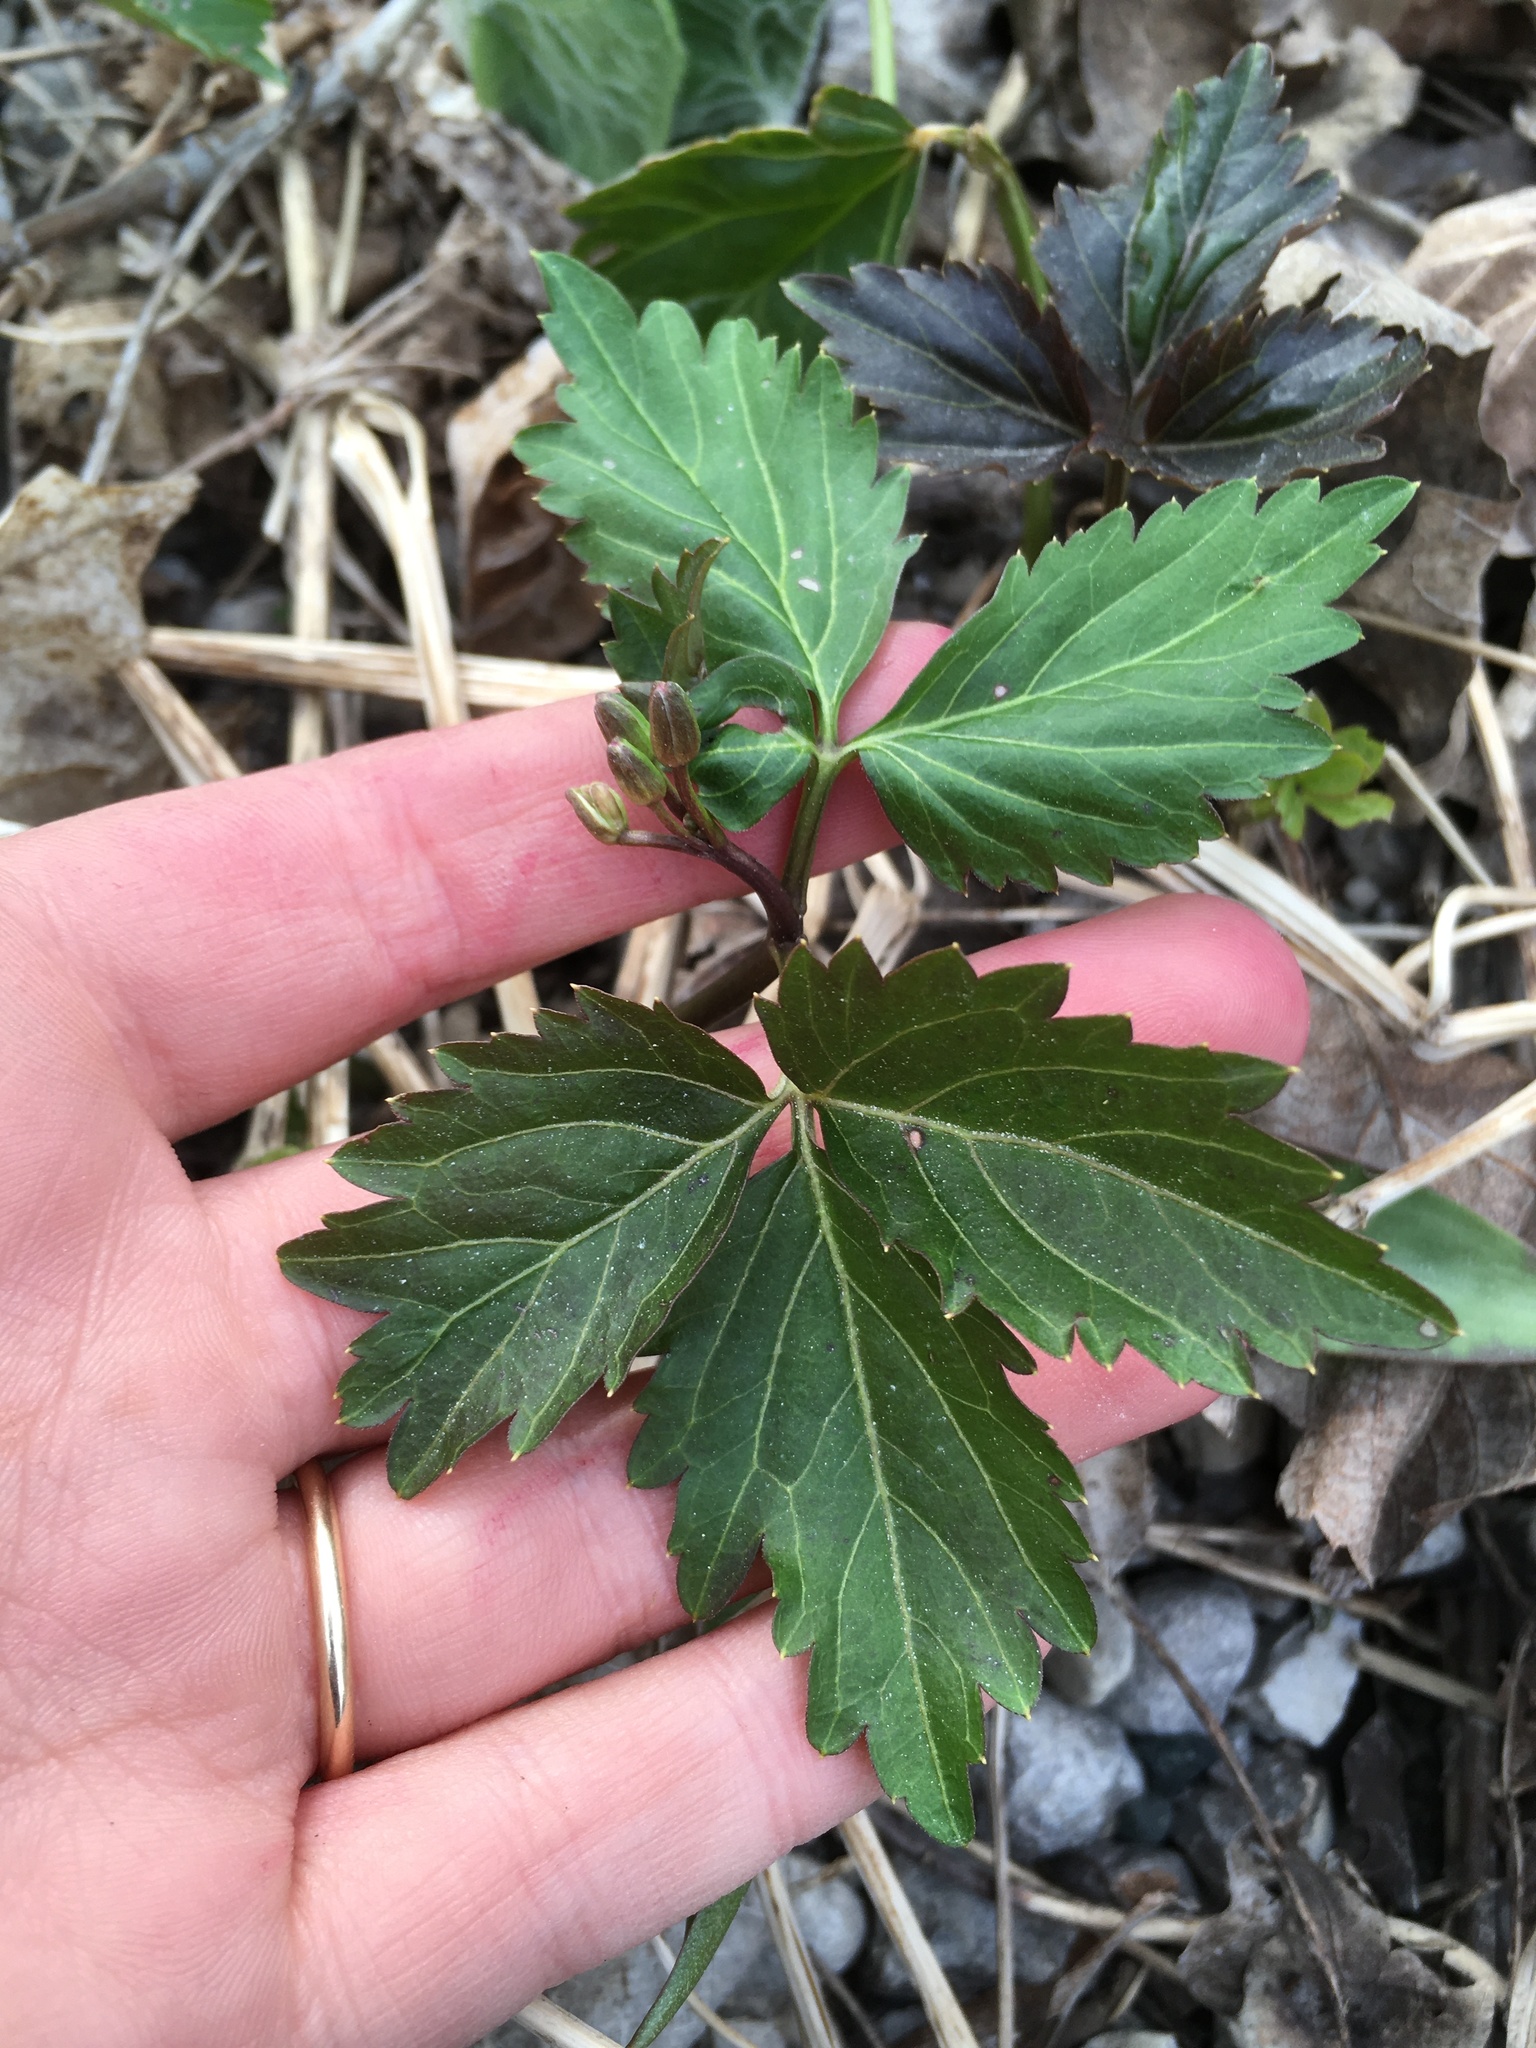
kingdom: Plantae
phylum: Tracheophyta
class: Magnoliopsida
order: Brassicales
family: Brassicaceae
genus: Cardamine
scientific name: Cardamine diphylla
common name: Broad-leaved toothwort
